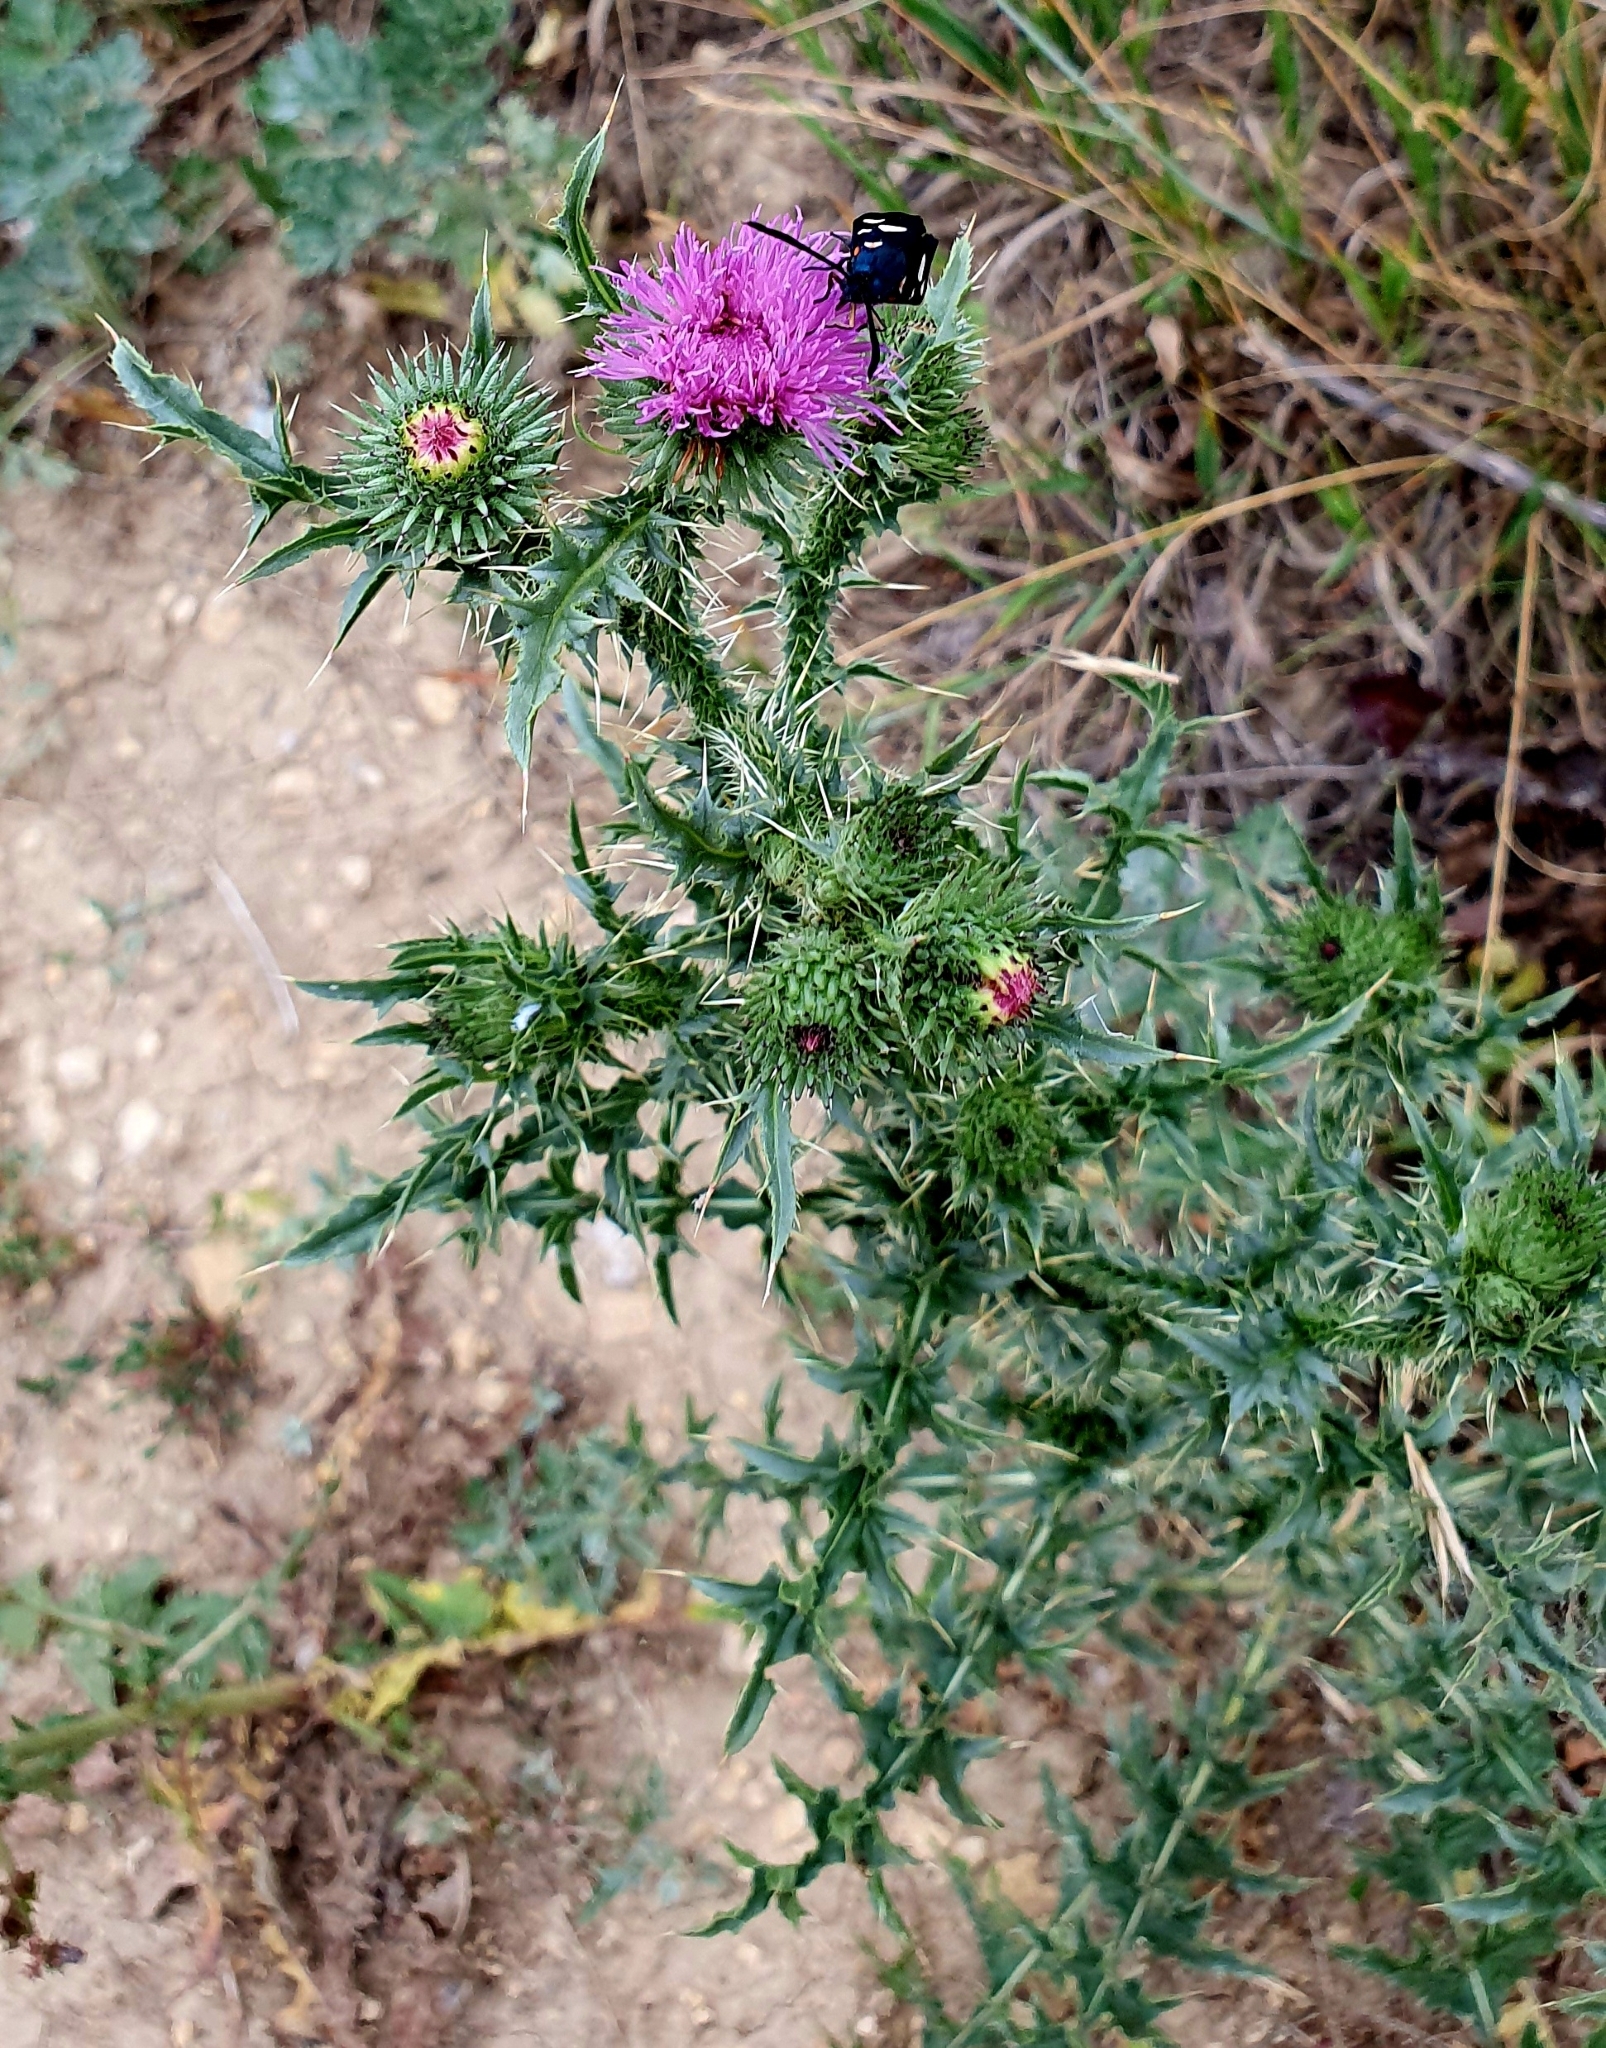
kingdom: Plantae
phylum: Tracheophyta
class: Magnoliopsida
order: Asterales
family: Asteraceae
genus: Carduus
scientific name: Carduus acanthoides
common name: Plumeless thistle
